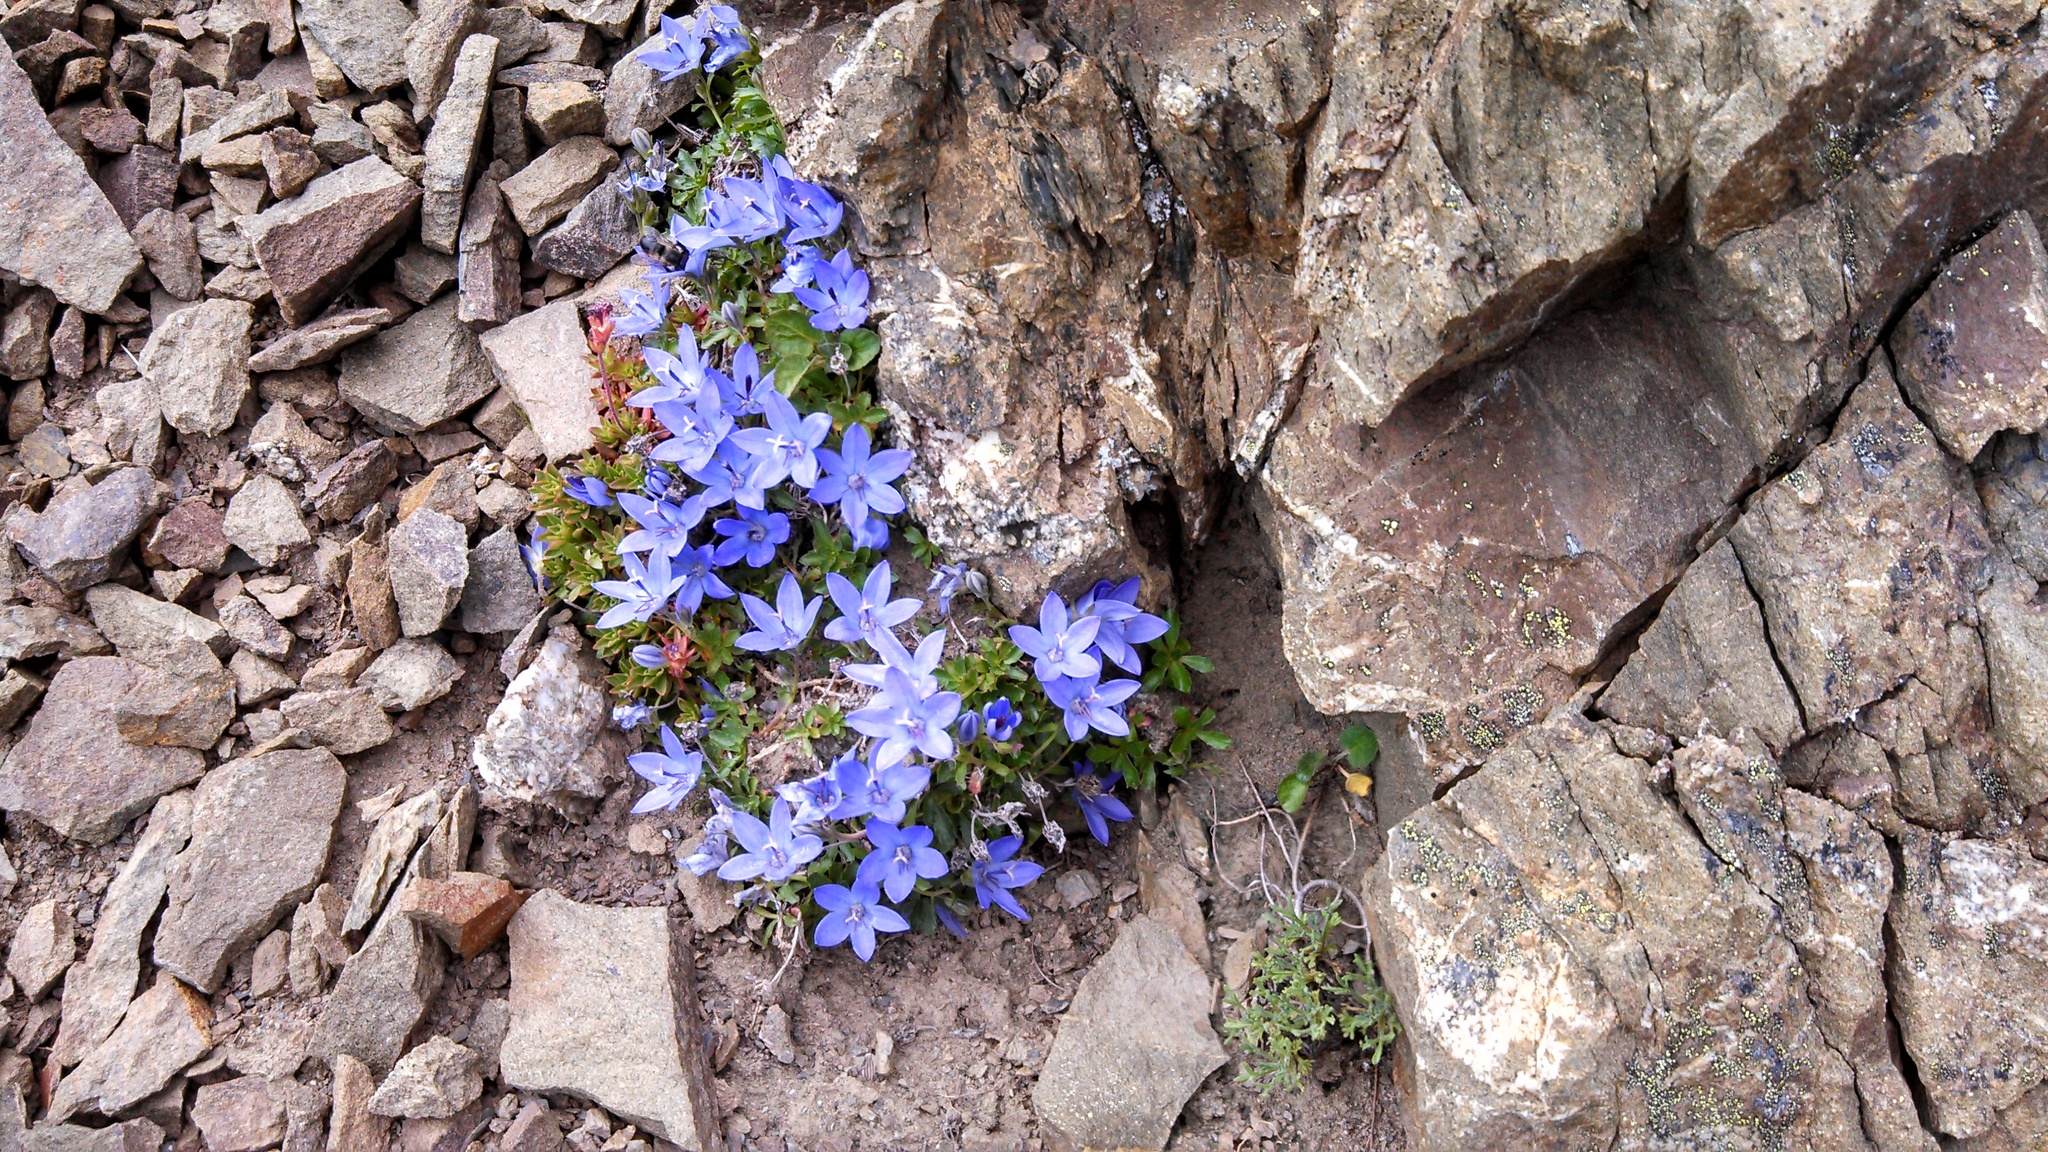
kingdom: Plantae
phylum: Tracheophyta
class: Magnoliopsida
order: Asterales
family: Campanulaceae
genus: Campanula
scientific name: Campanula piperi
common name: Olympic bellflower
